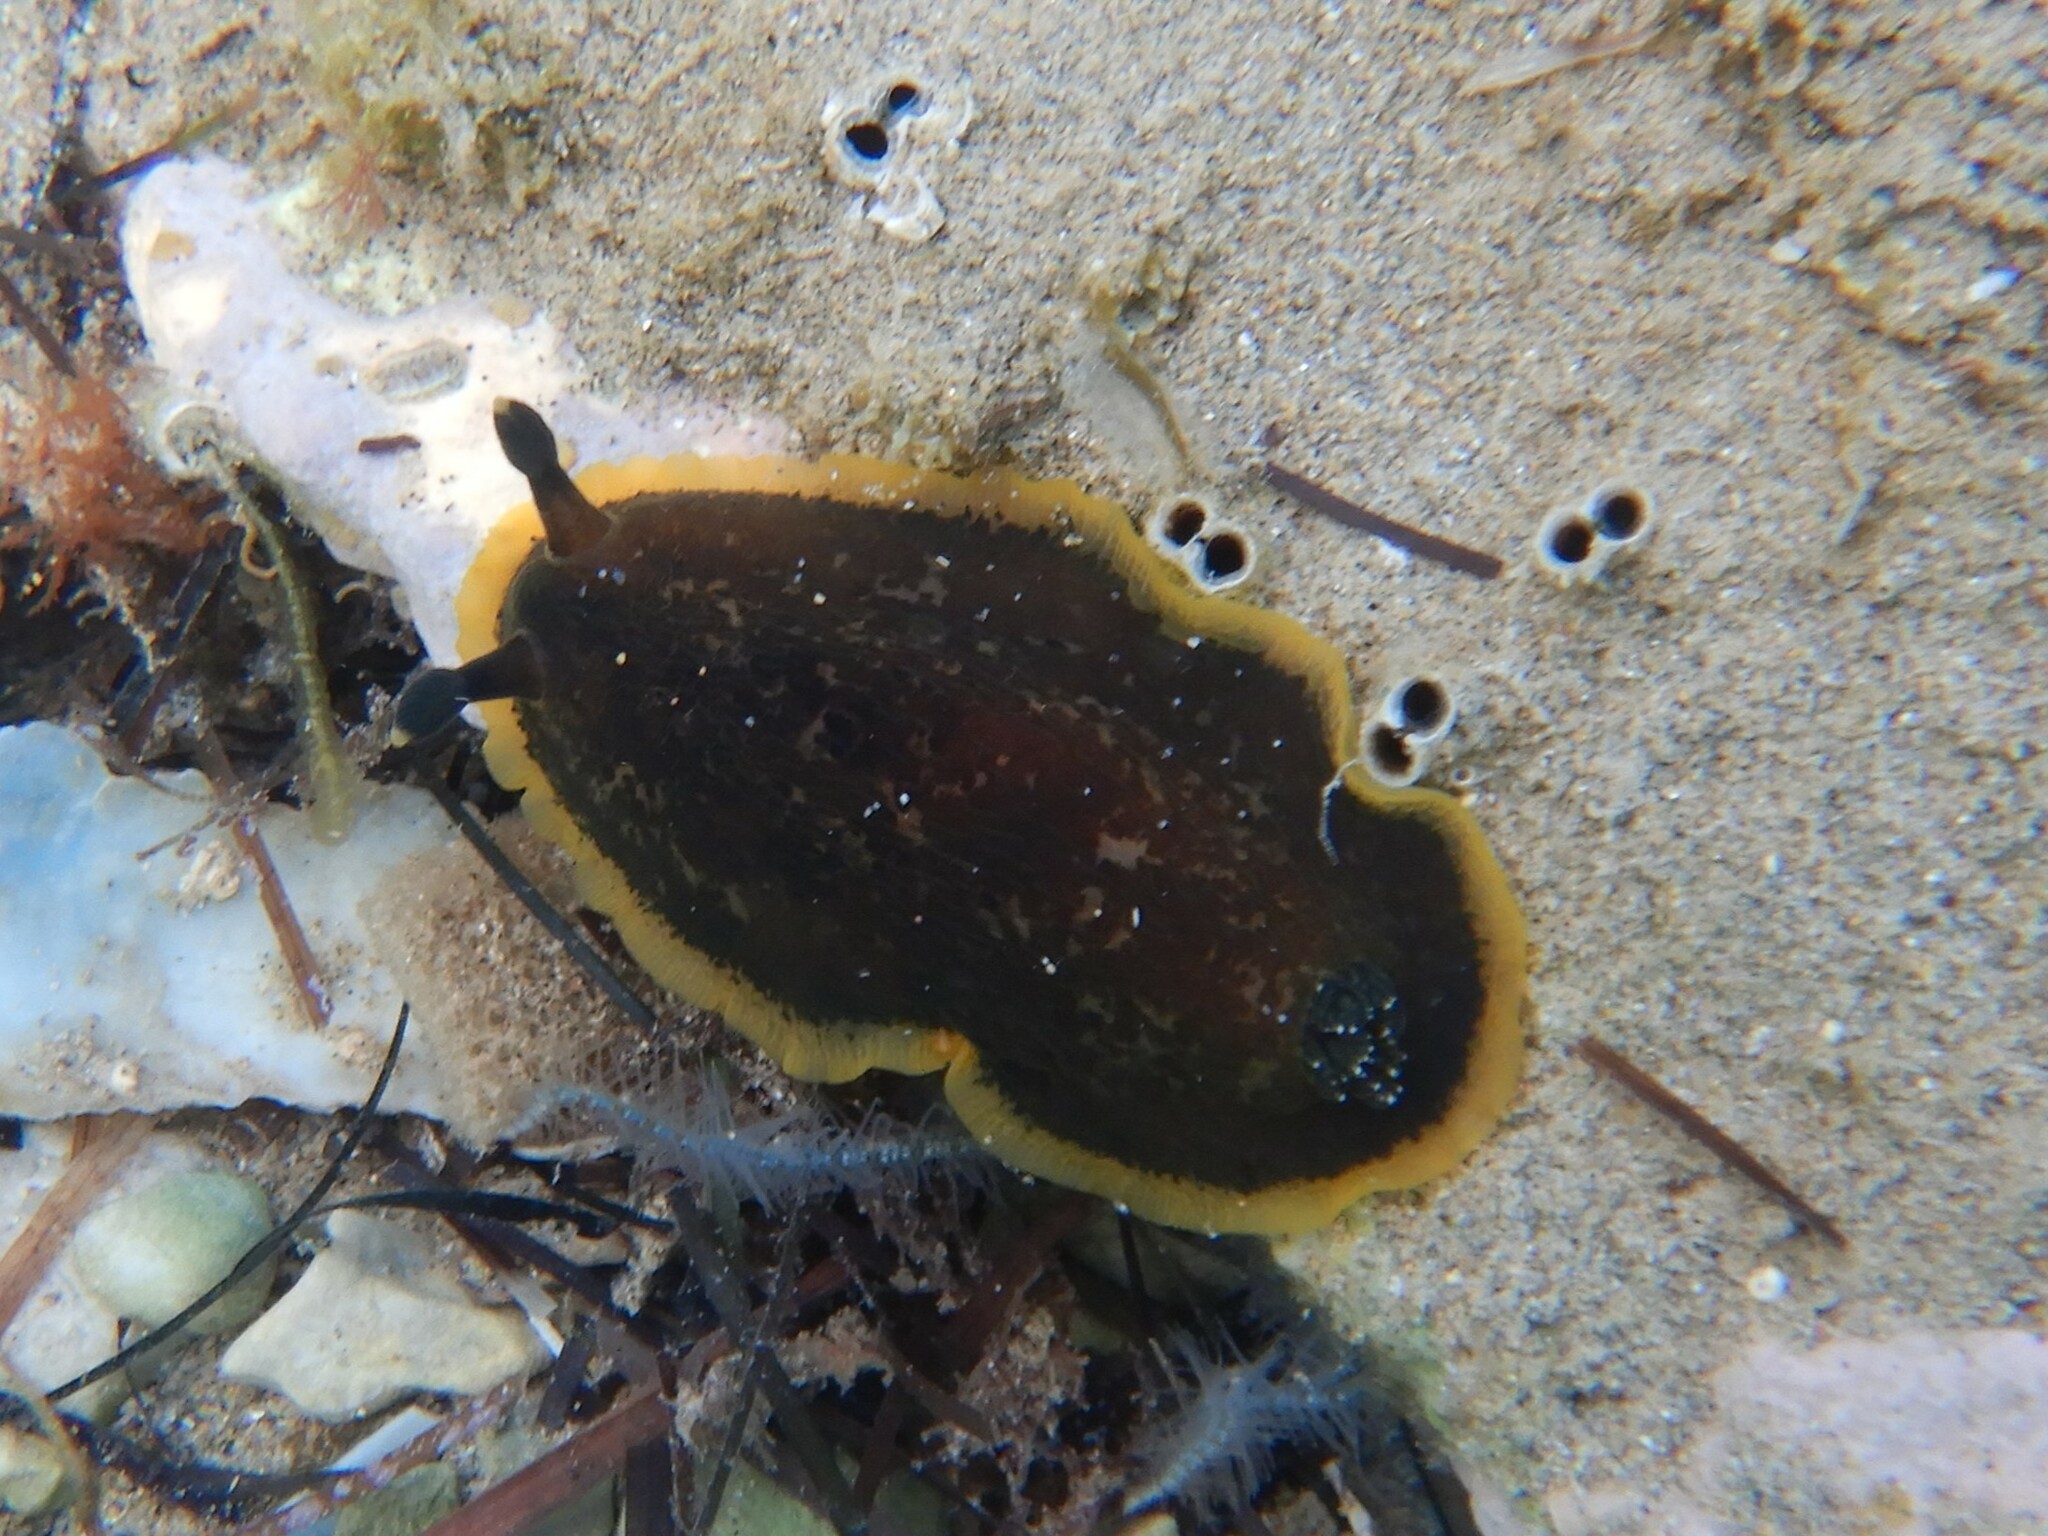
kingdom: Animalia
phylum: Mollusca
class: Gastropoda
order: Nudibranchia
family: Dendrodorididae
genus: Dendrodoris
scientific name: Dendrodoris limbata
